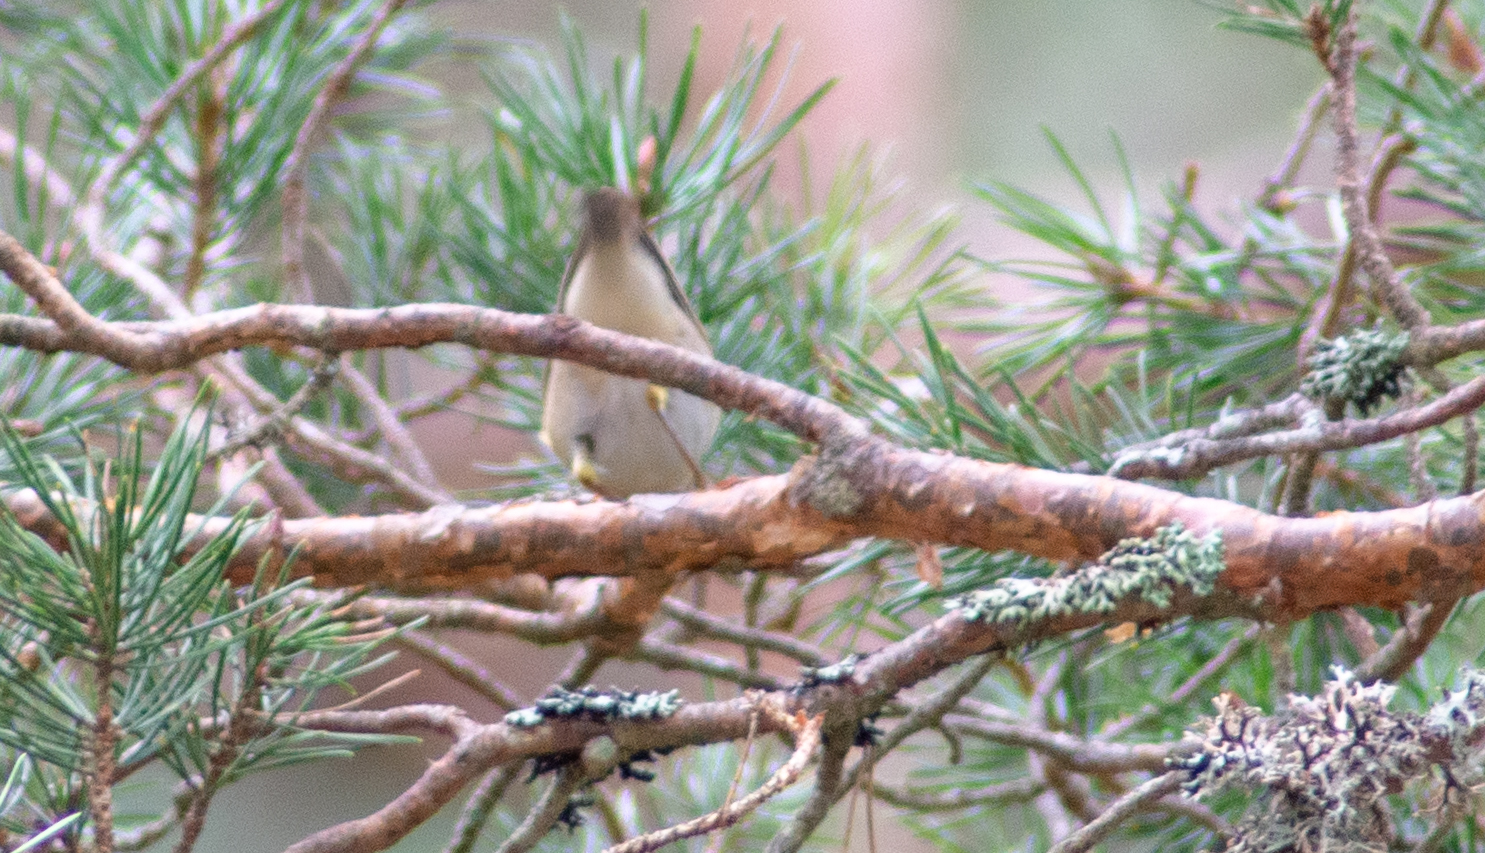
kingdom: Animalia
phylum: Chordata
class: Aves
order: Passeriformes
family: Phylloscopidae
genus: Phylloscopus
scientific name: Phylloscopus collybita
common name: Common chiffchaff
